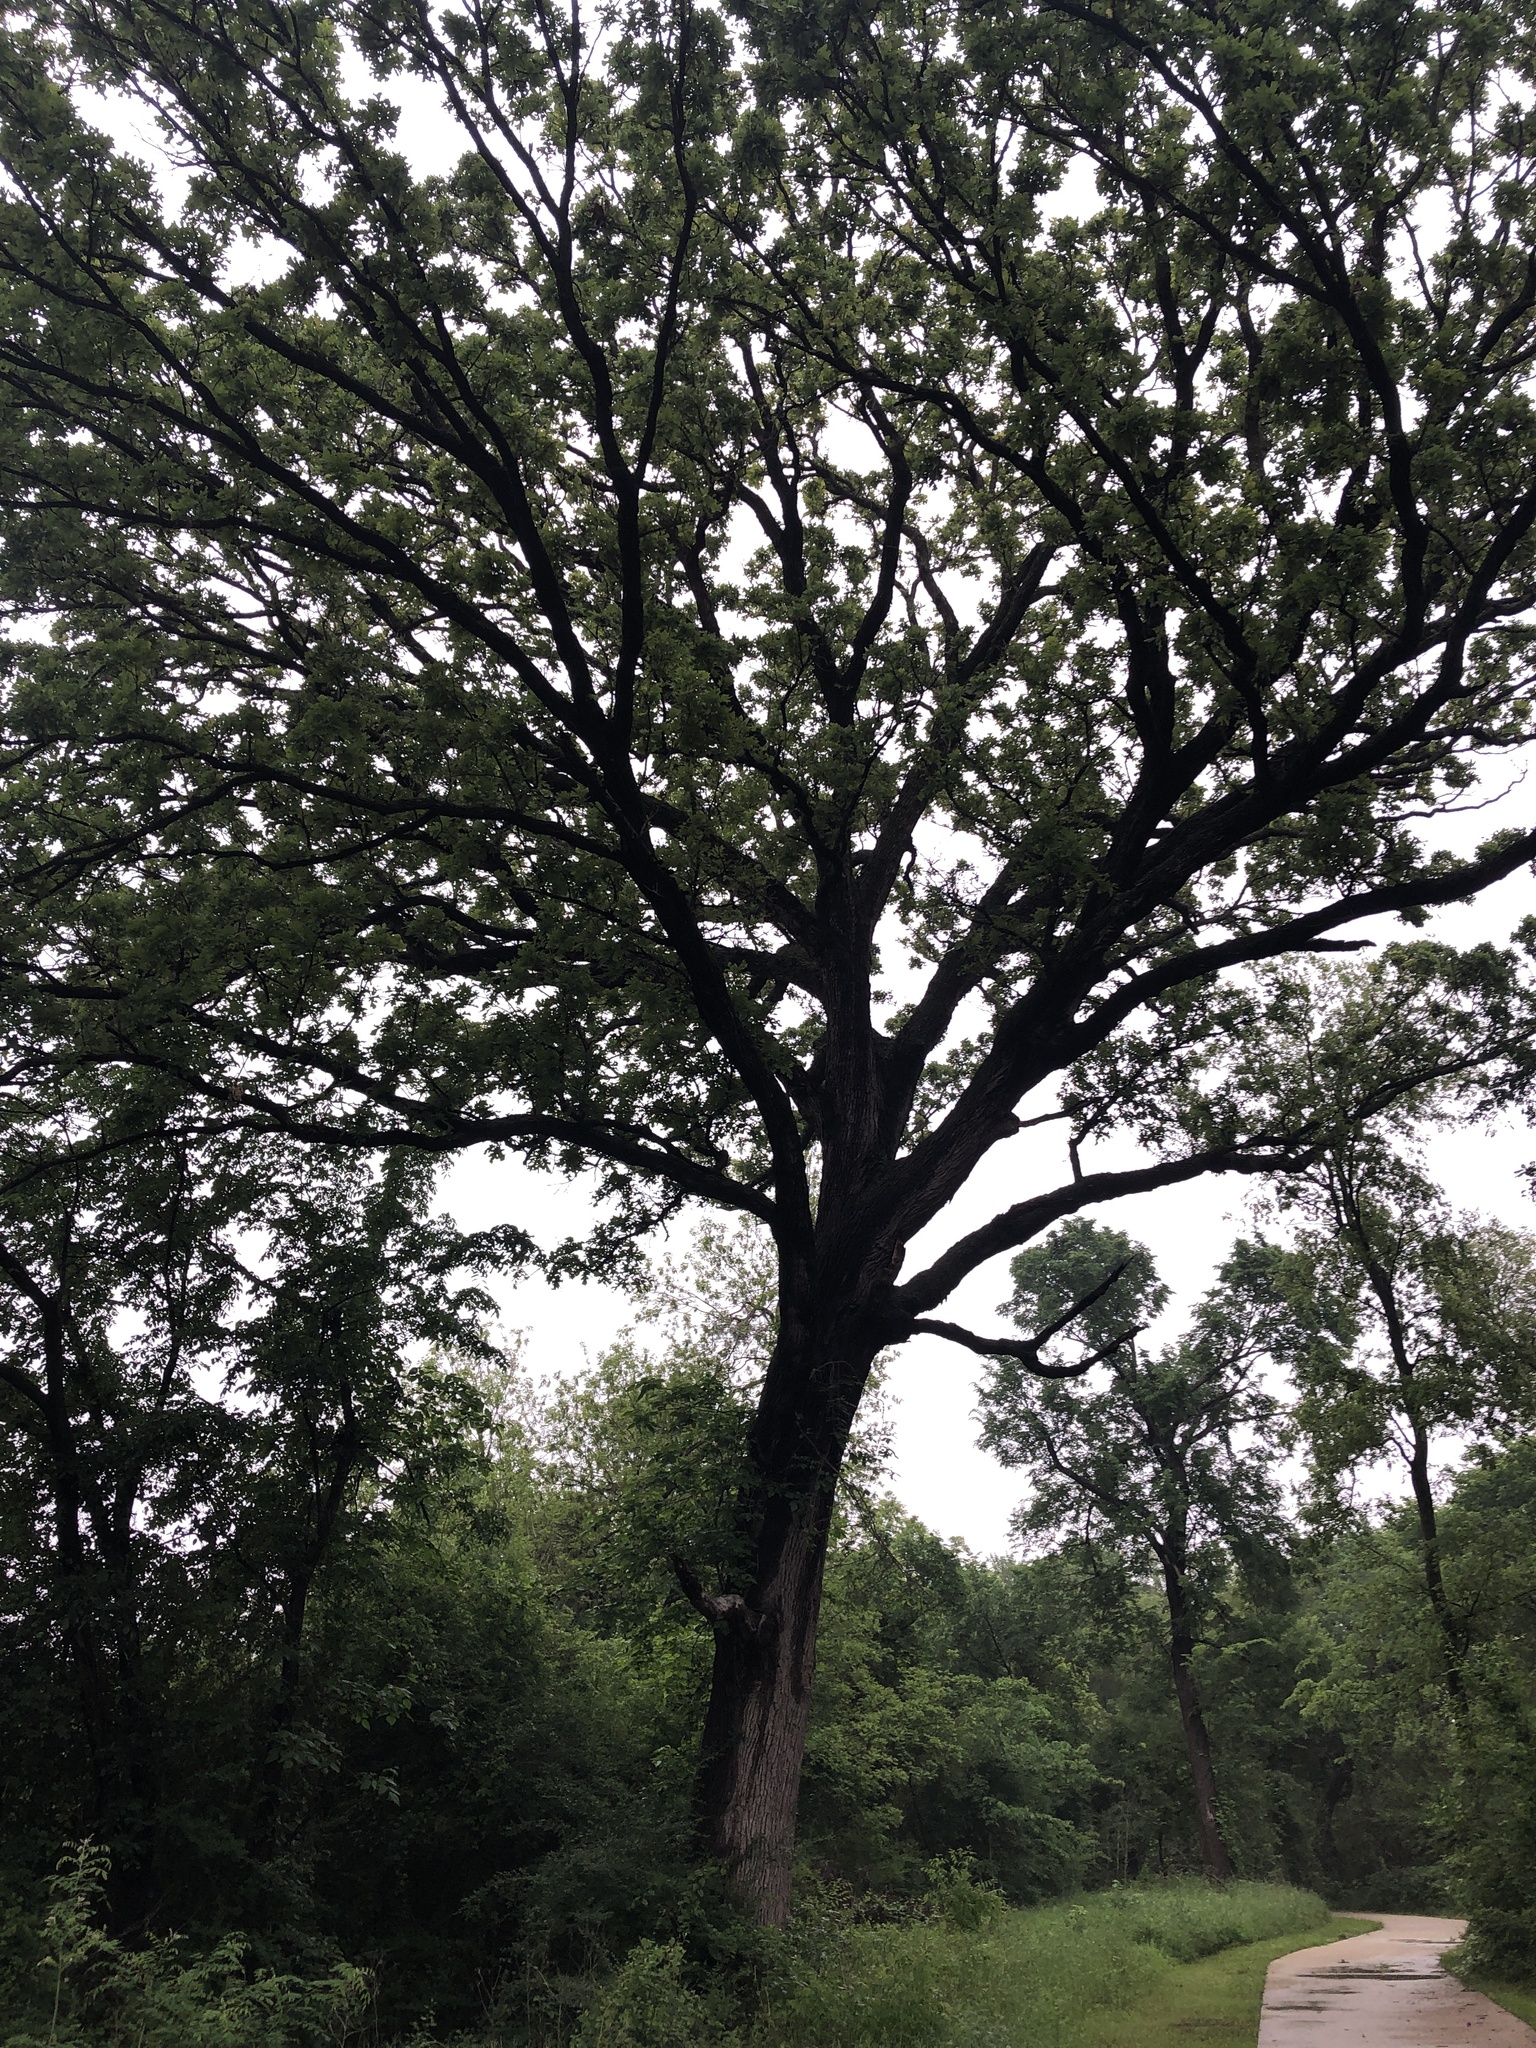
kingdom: Plantae
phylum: Tracheophyta
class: Magnoliopsida
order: Fagales
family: Fagaceae
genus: Quercus
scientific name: Quercus macrocarpa
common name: Bur oak
